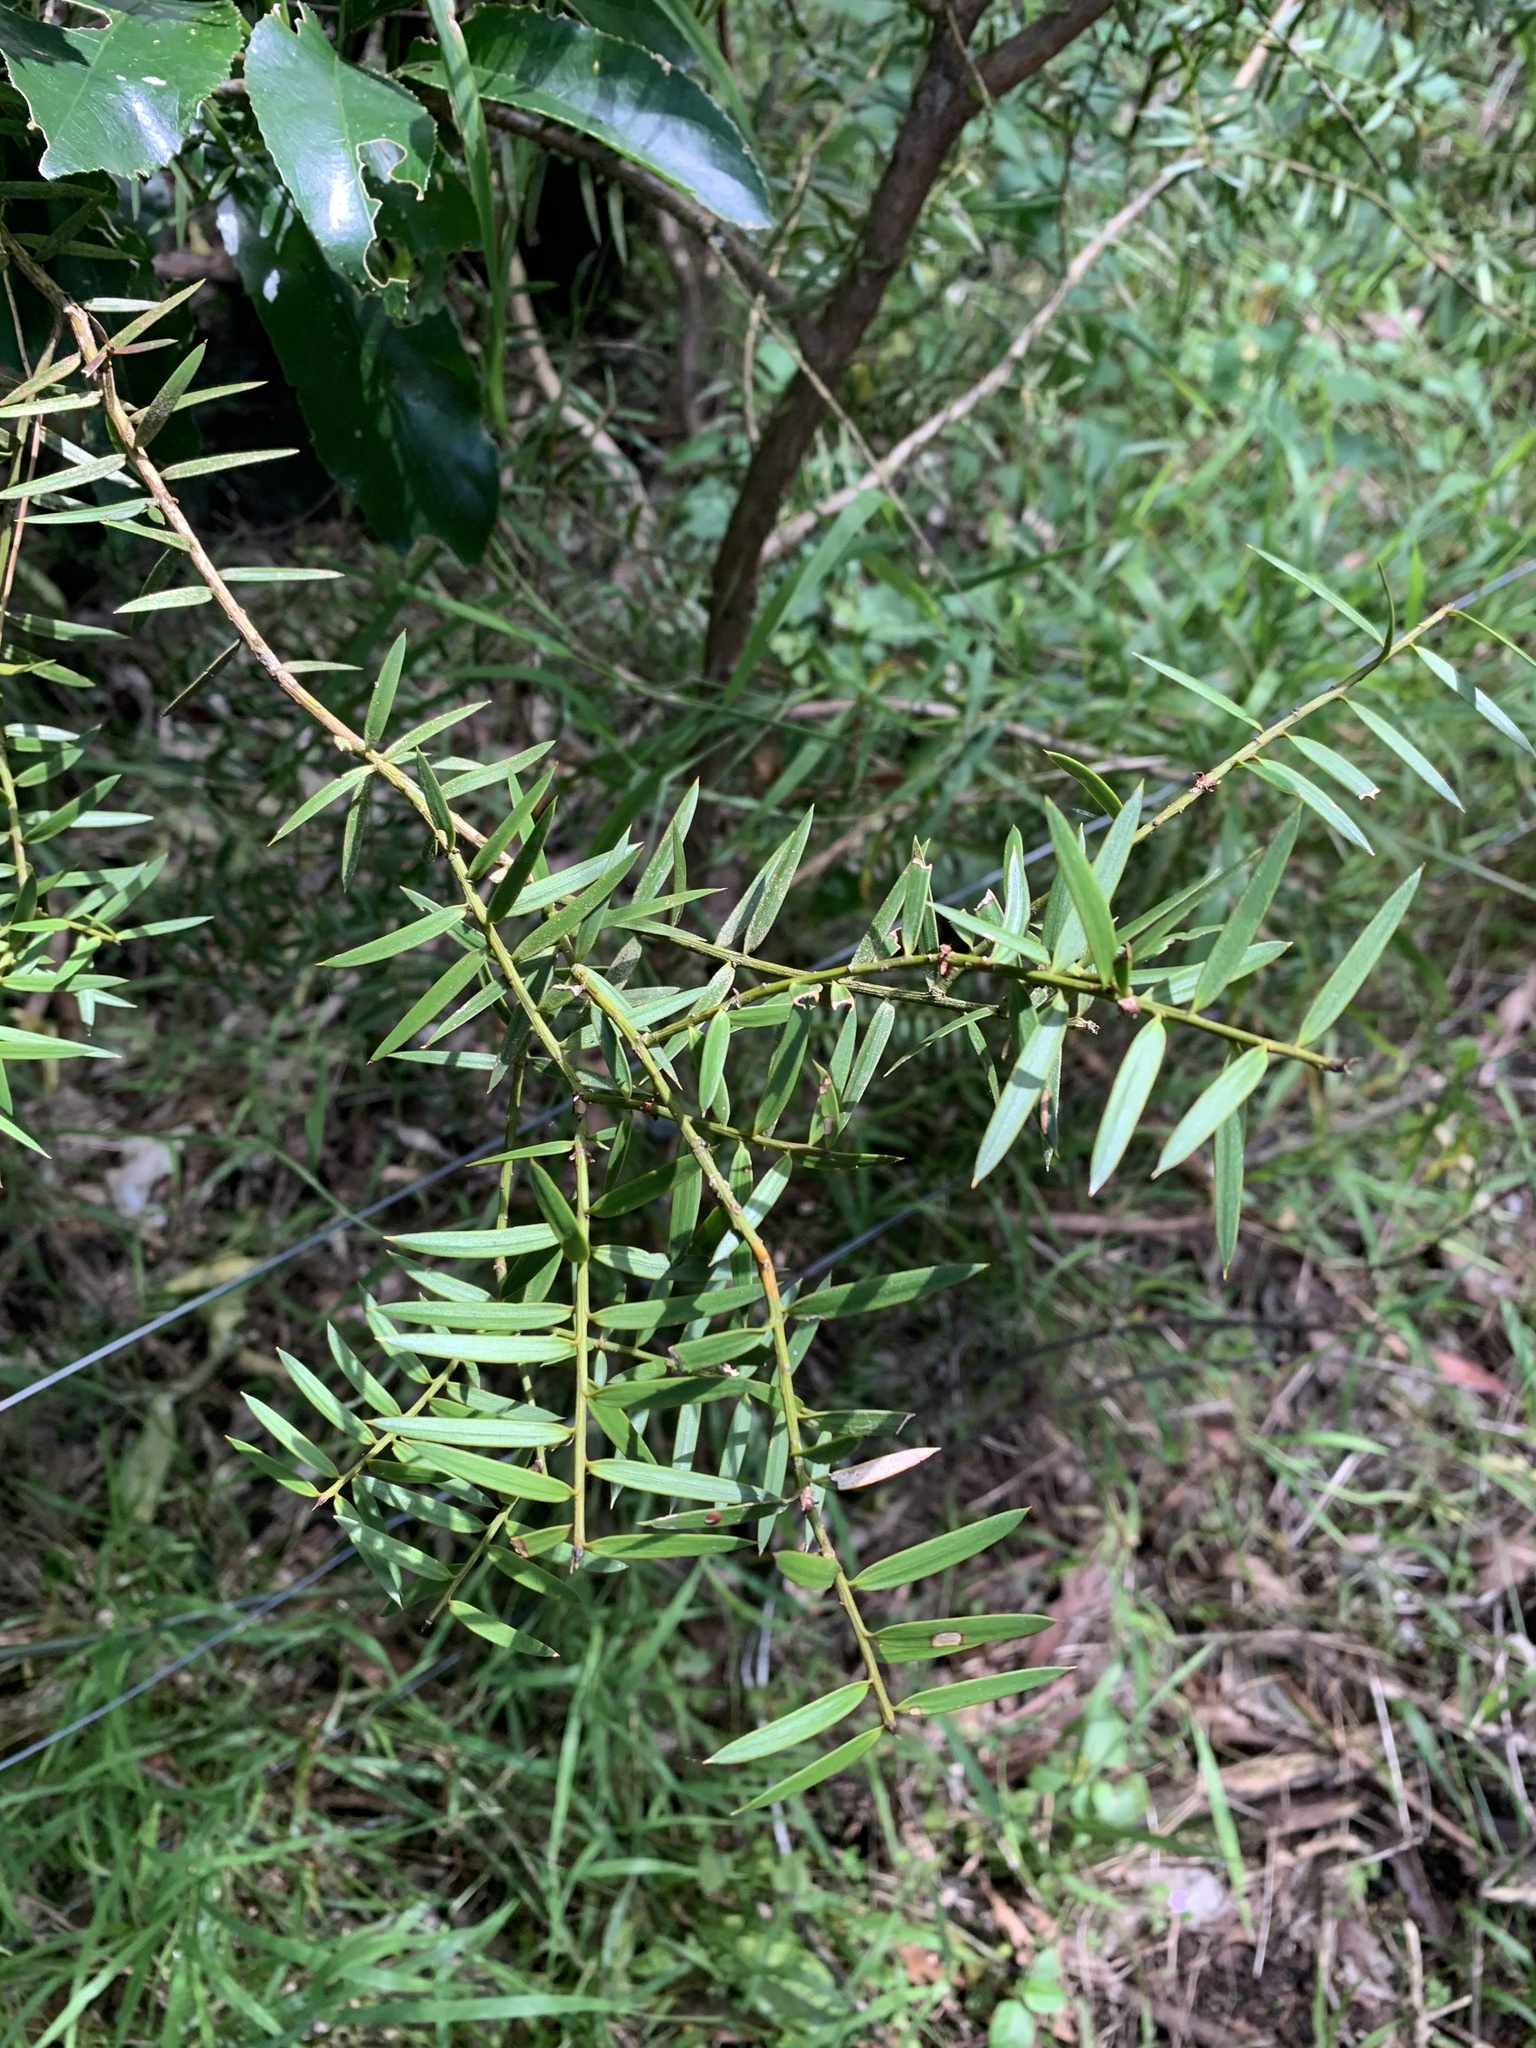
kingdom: Plantae
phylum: Tracheophyta
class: Pinopsida
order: Pinales
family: Podocarpaceae
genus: Podocarpus
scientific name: Podocarpus totara
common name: Totara
